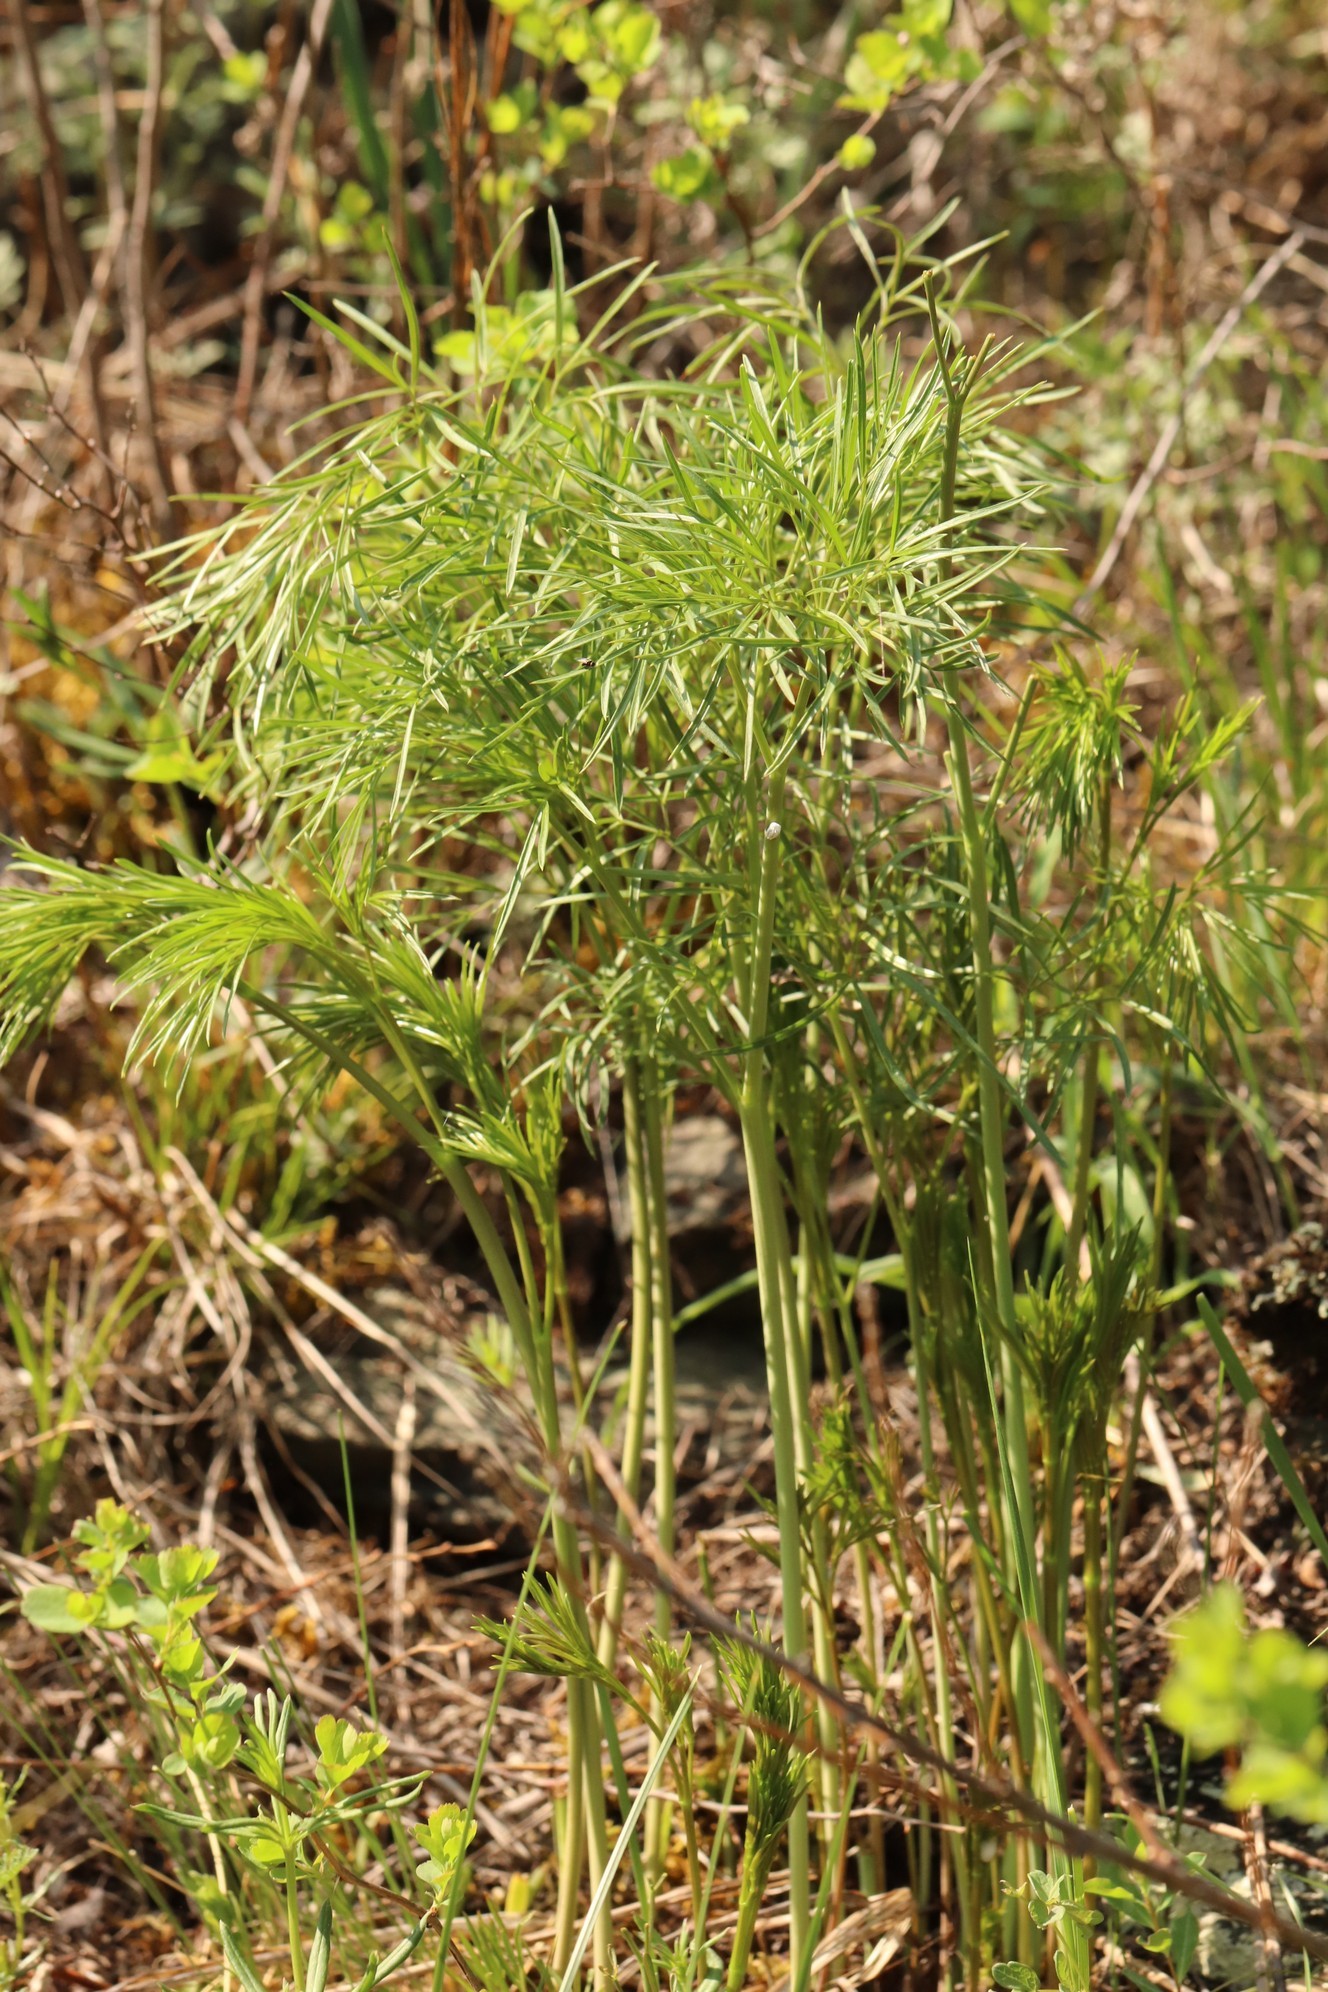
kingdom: Plantae
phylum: Tracheophyta
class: Magnoliopsida
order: Apiales
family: Apiaceae
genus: Peucedanum
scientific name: Peucedanum morisonii
